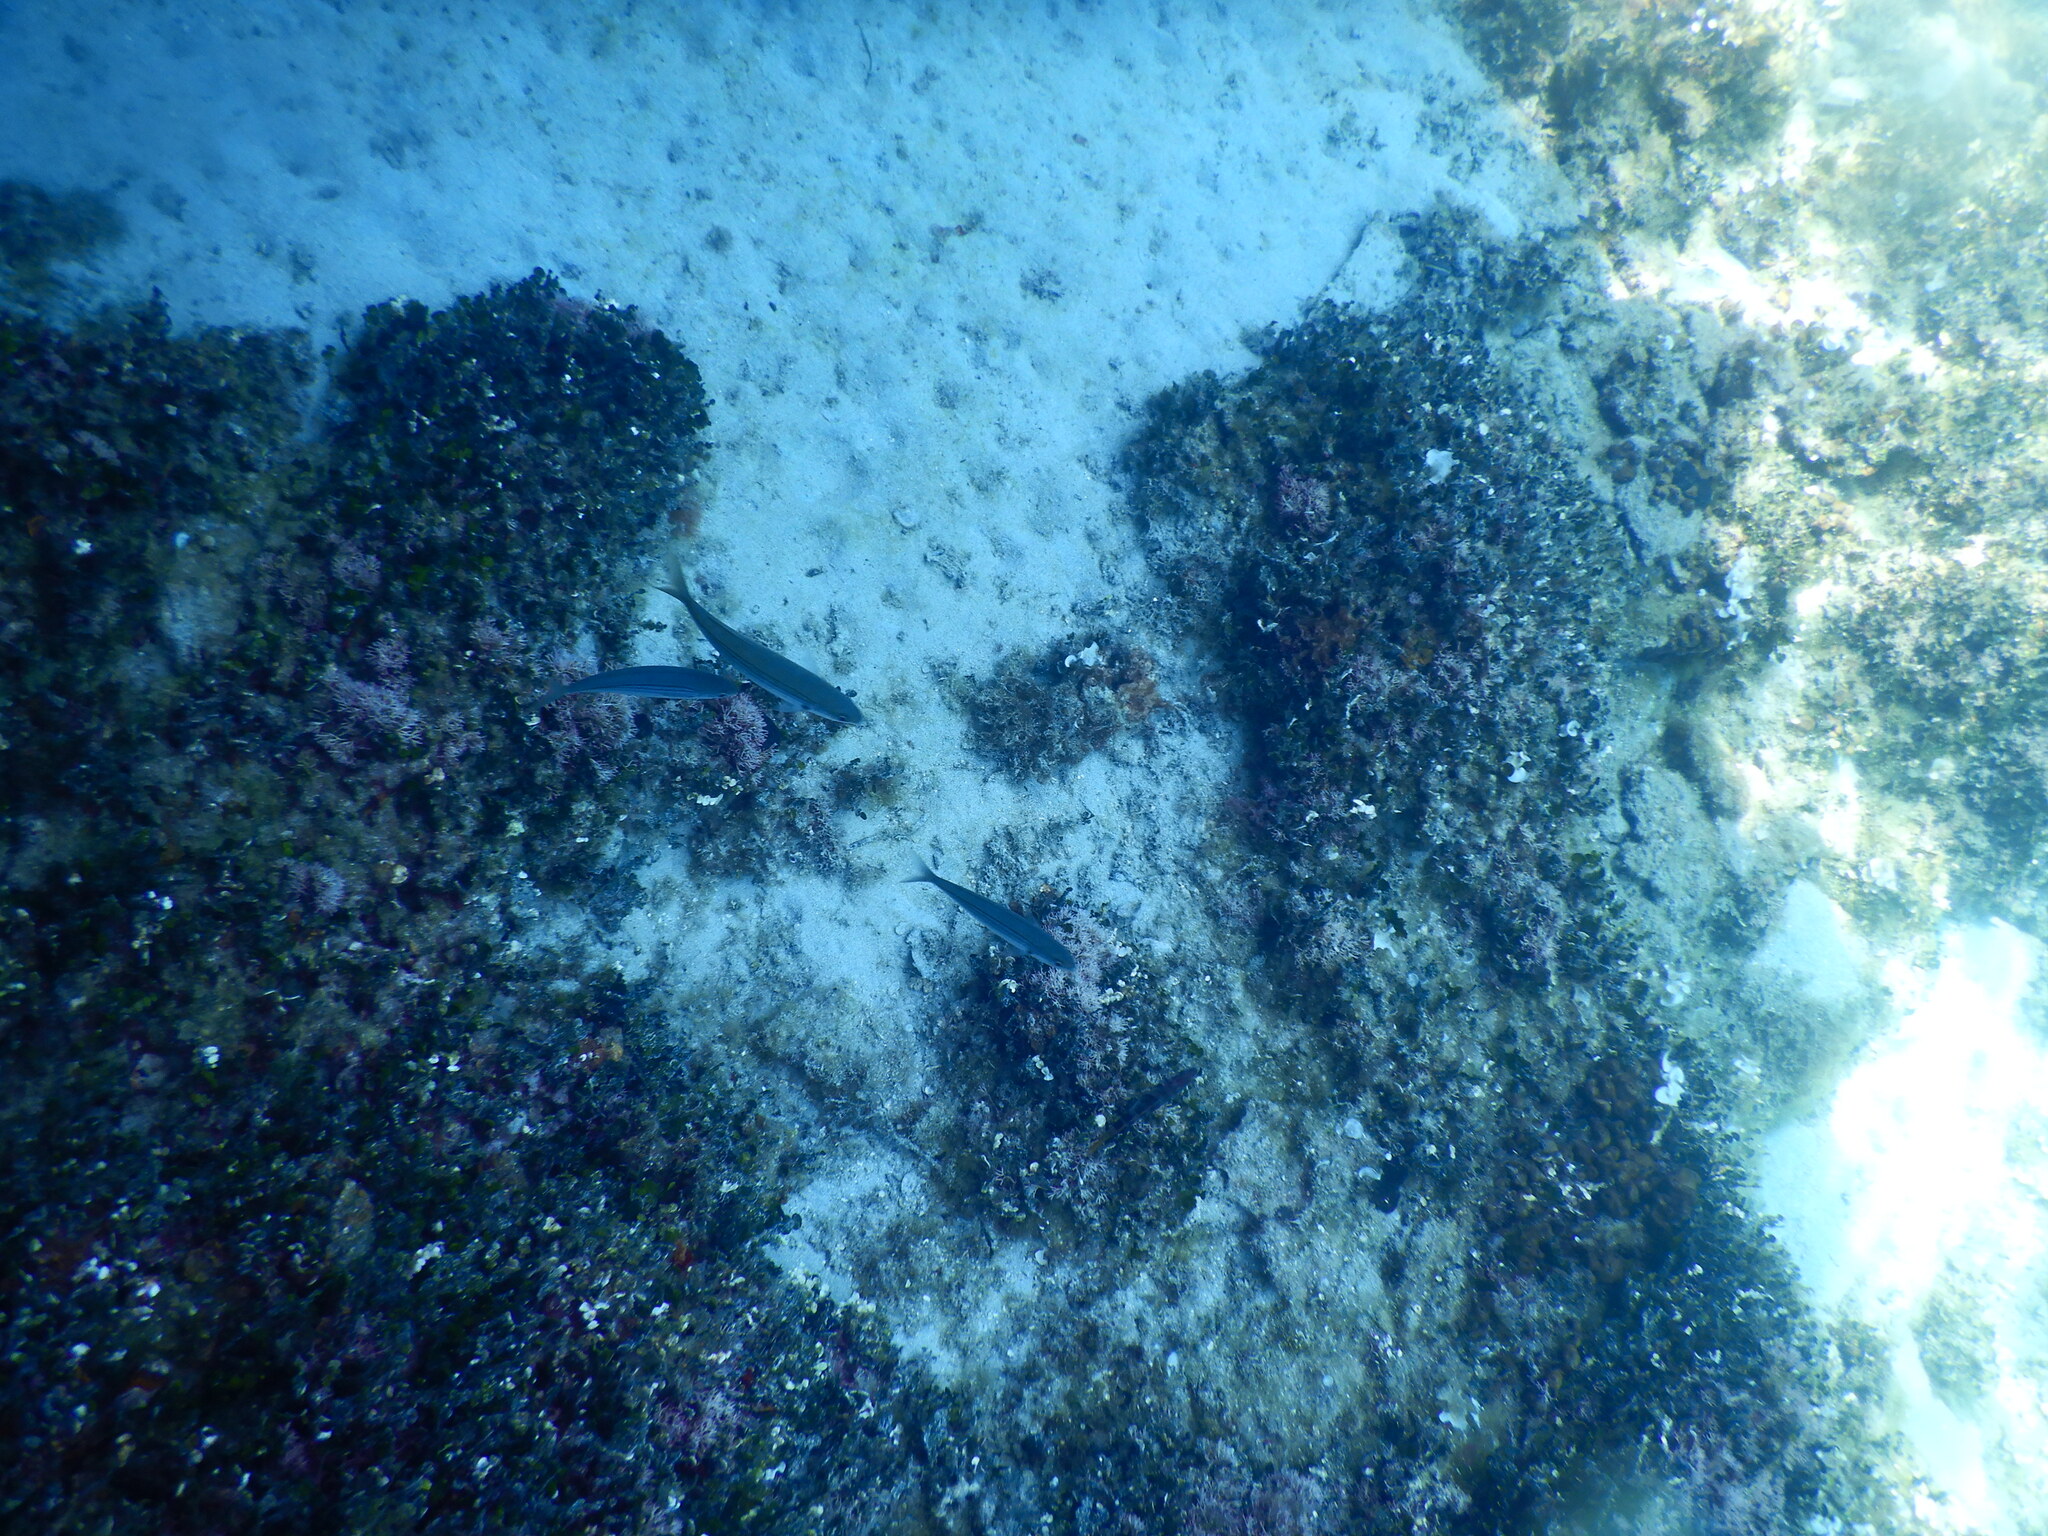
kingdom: Animalia
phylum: Chordata
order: Perciformes
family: Sparidae
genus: Boops
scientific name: Boops boops
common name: Bogue
